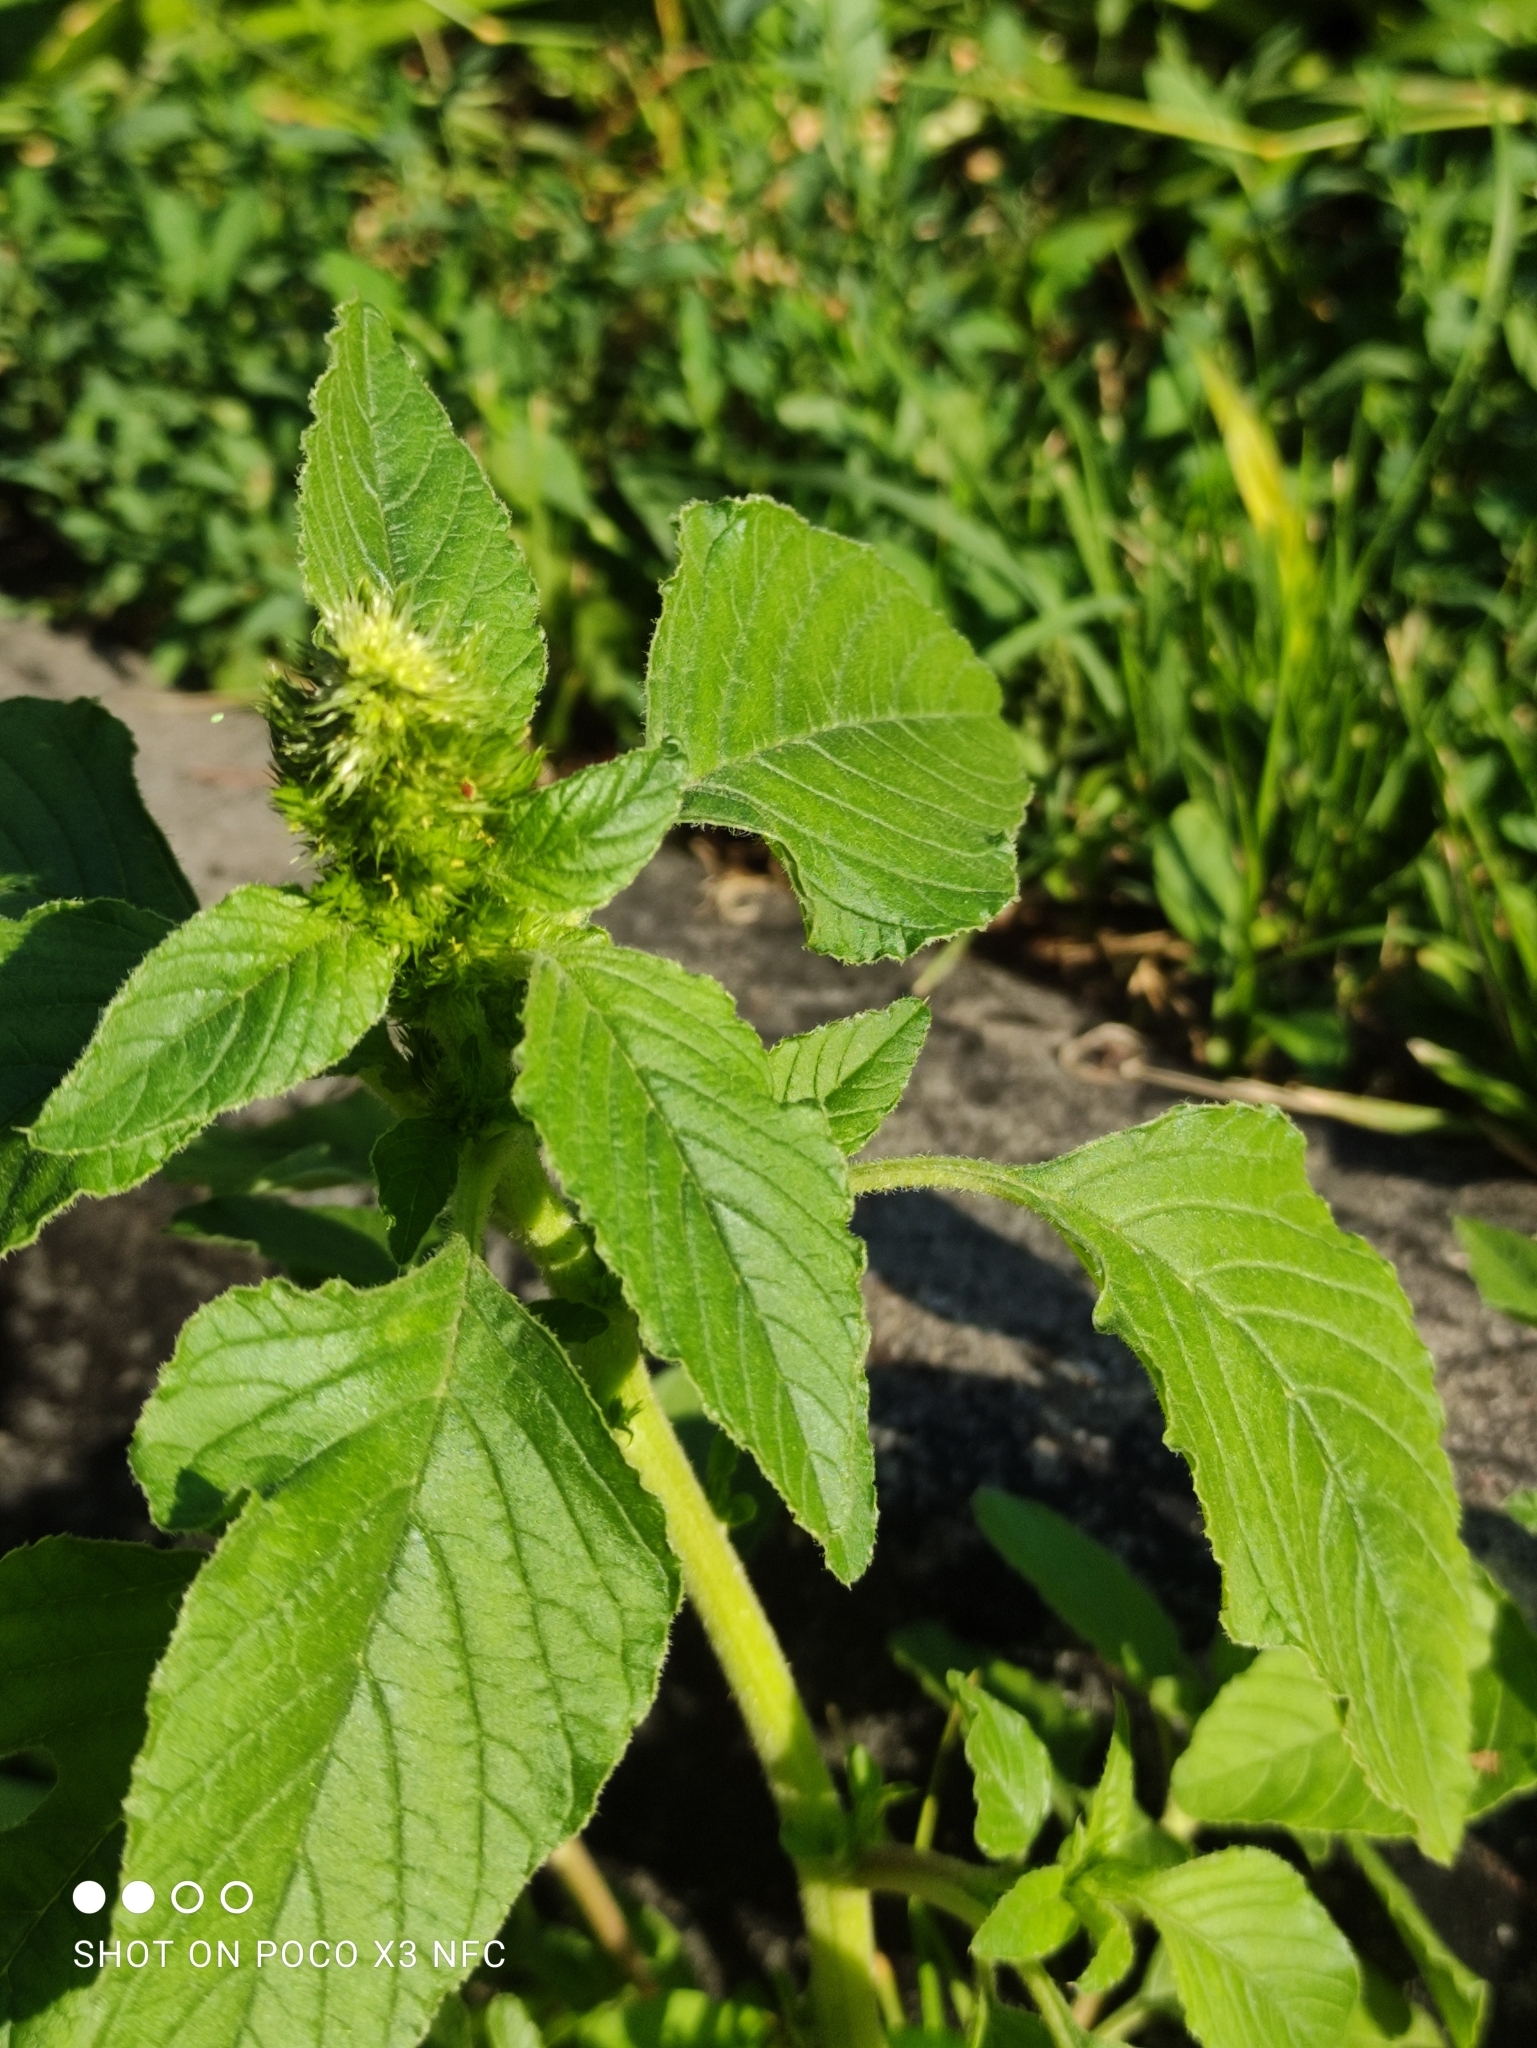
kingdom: Plantae
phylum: Tracheophyta
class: Magnoliopsida
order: Caryophyllales
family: Amaranthaceae
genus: Amaranthus
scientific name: Amaranthus retroflexus
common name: Redroot amaranth
